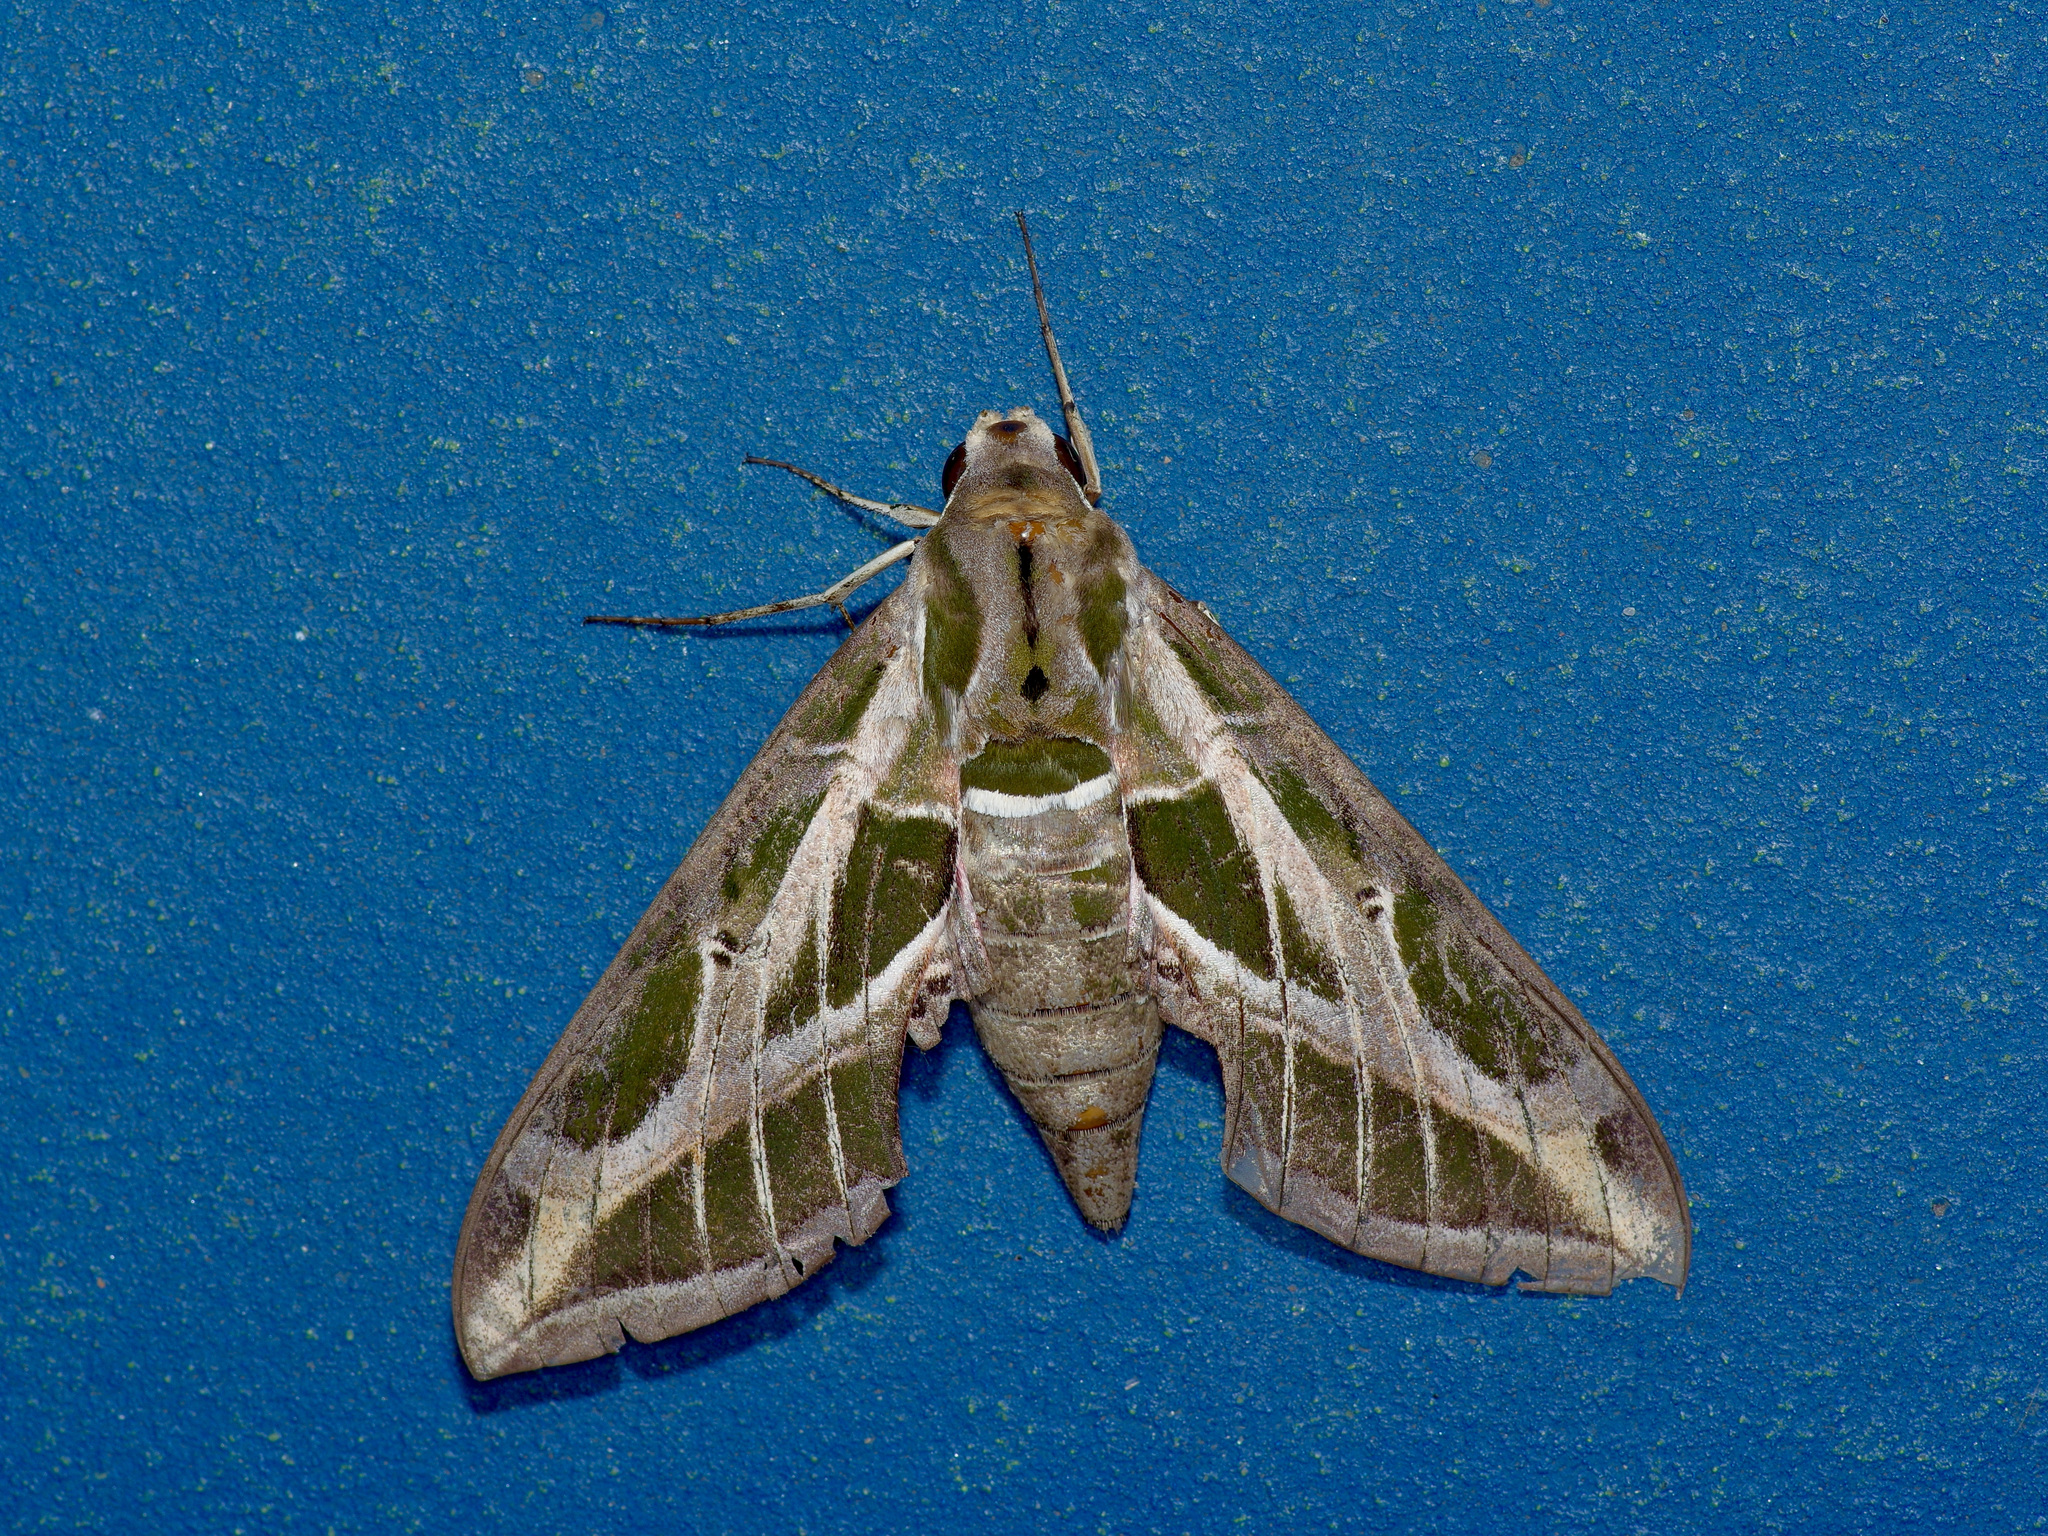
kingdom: Animalia
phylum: Arthropoda
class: Insecta
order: Lepidoptera
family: Sphingidae
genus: Eumorpha
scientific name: Eumorpha vitis
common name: Vine sphinx
